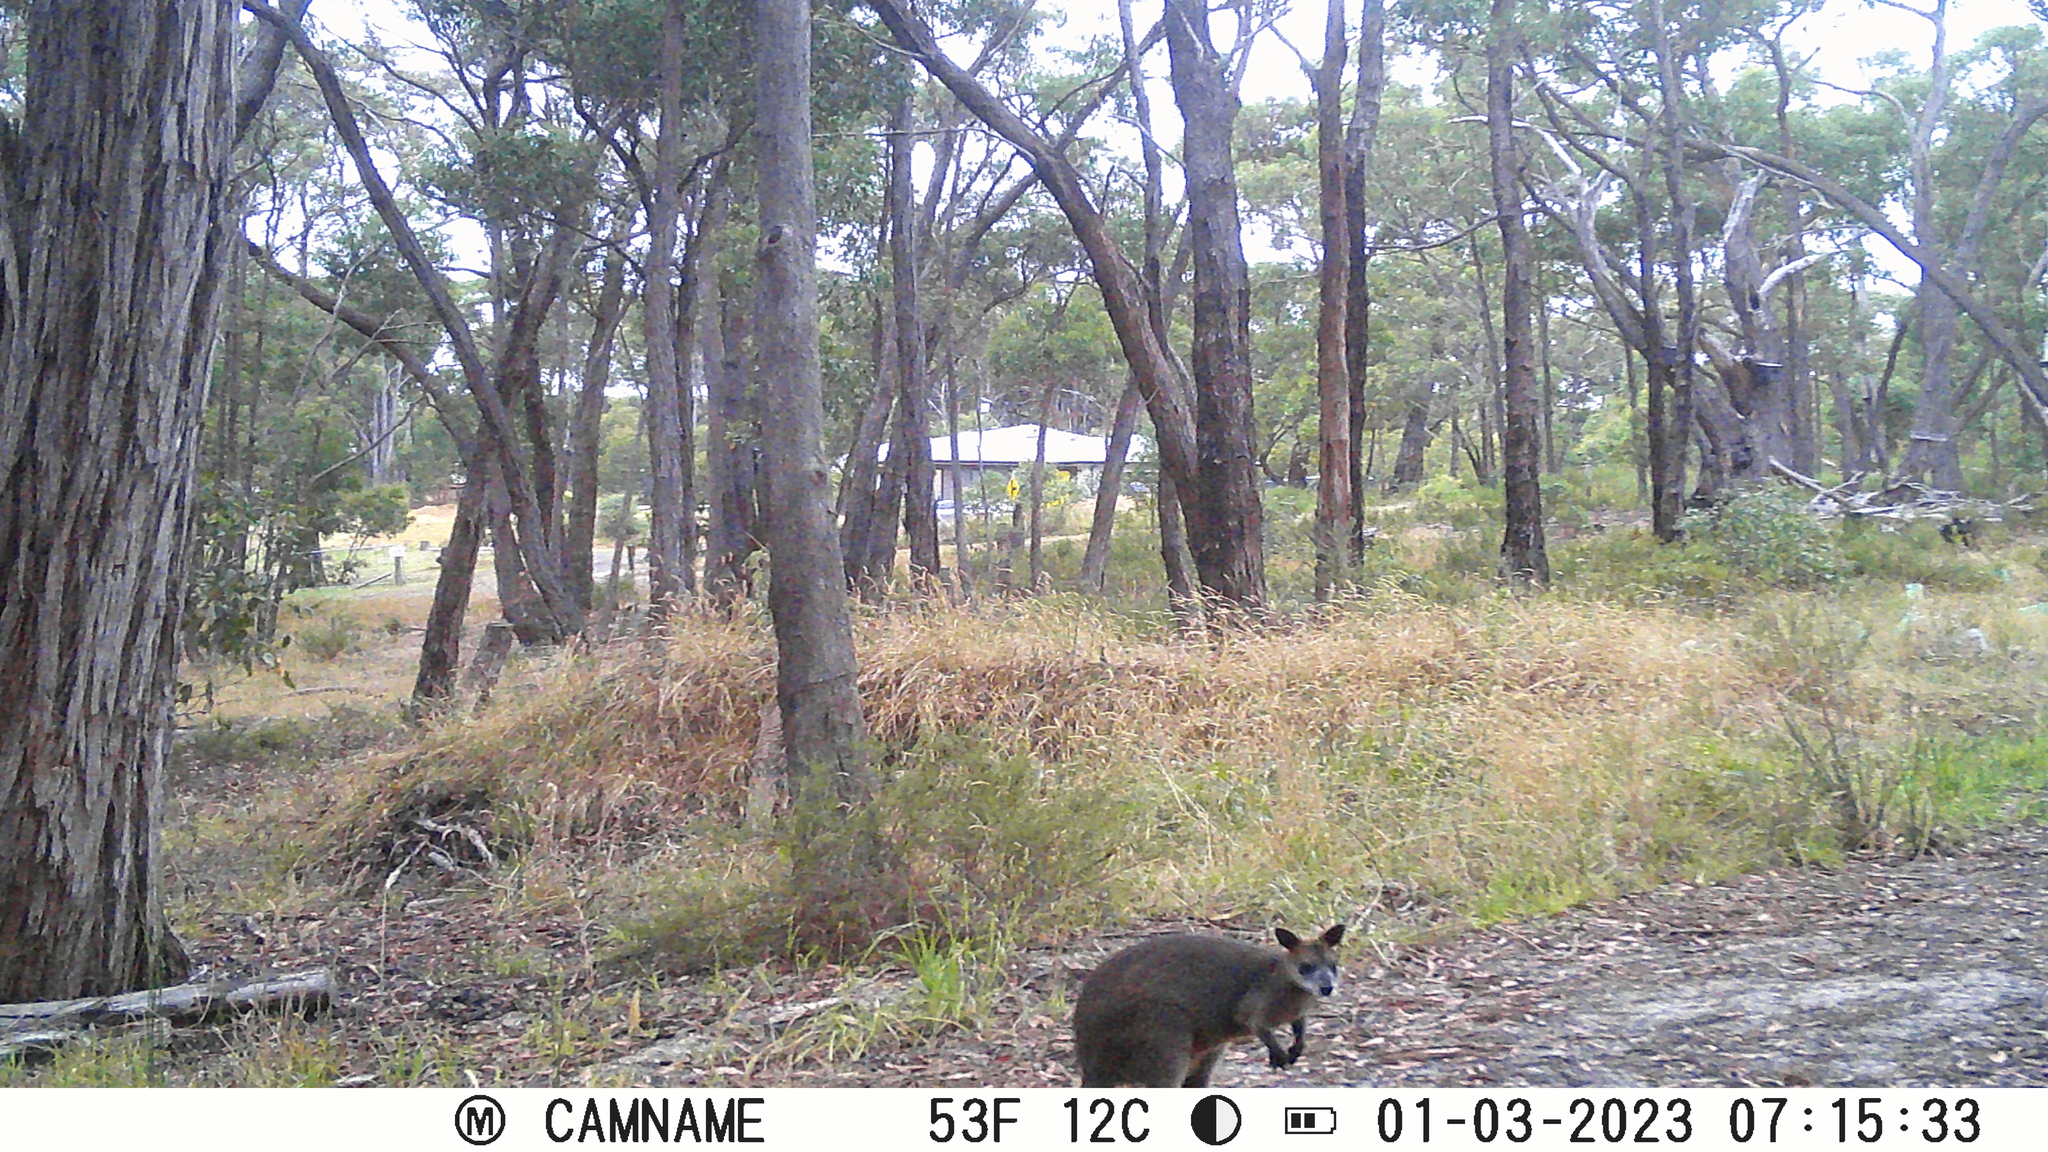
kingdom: Animalia
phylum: Chordata
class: Mammalia
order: Diprotodontia
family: Macropodidae
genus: Wallabia
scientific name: Wallabia bicolor
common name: Swamp wallaby
